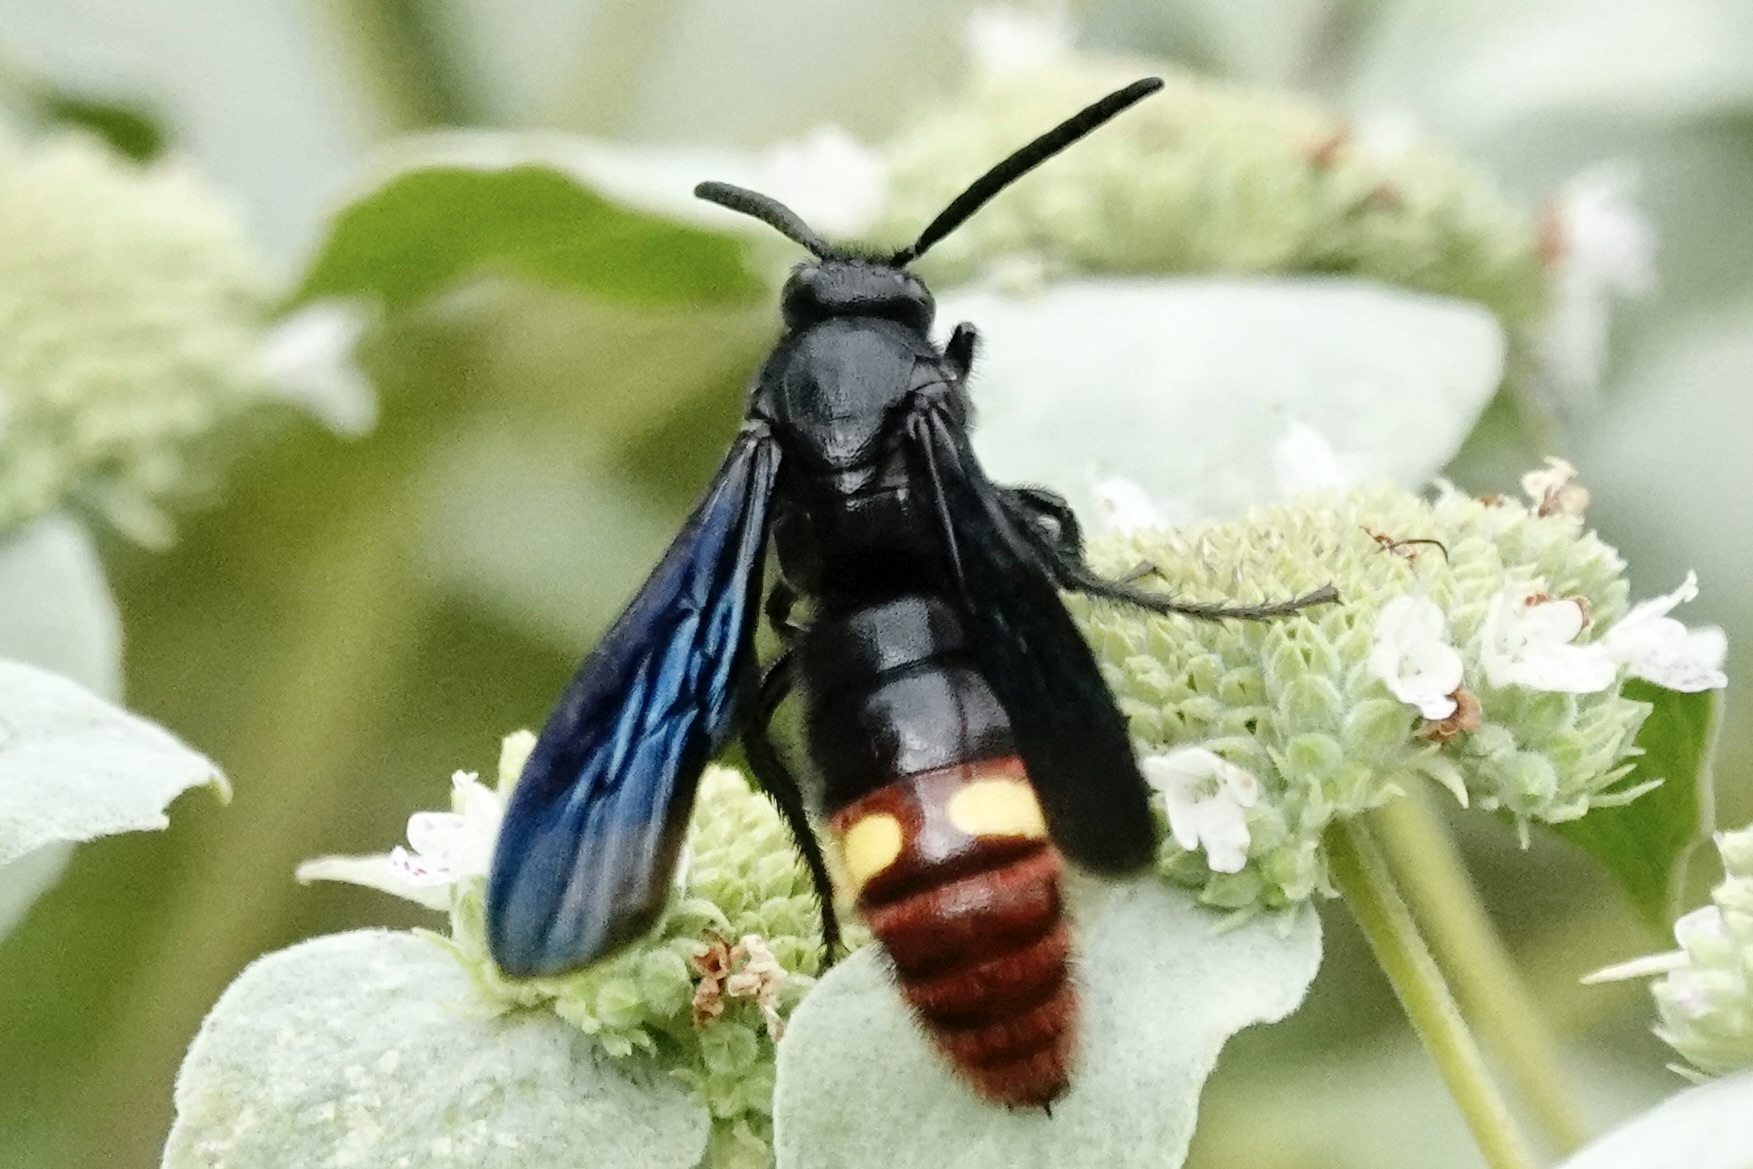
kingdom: Animalia
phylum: Arthropoda
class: Insecta
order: Hymenoptera
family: Scoliidae
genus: Scolia
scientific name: Scolia dubia
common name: Blue-winged scoliid wasp
